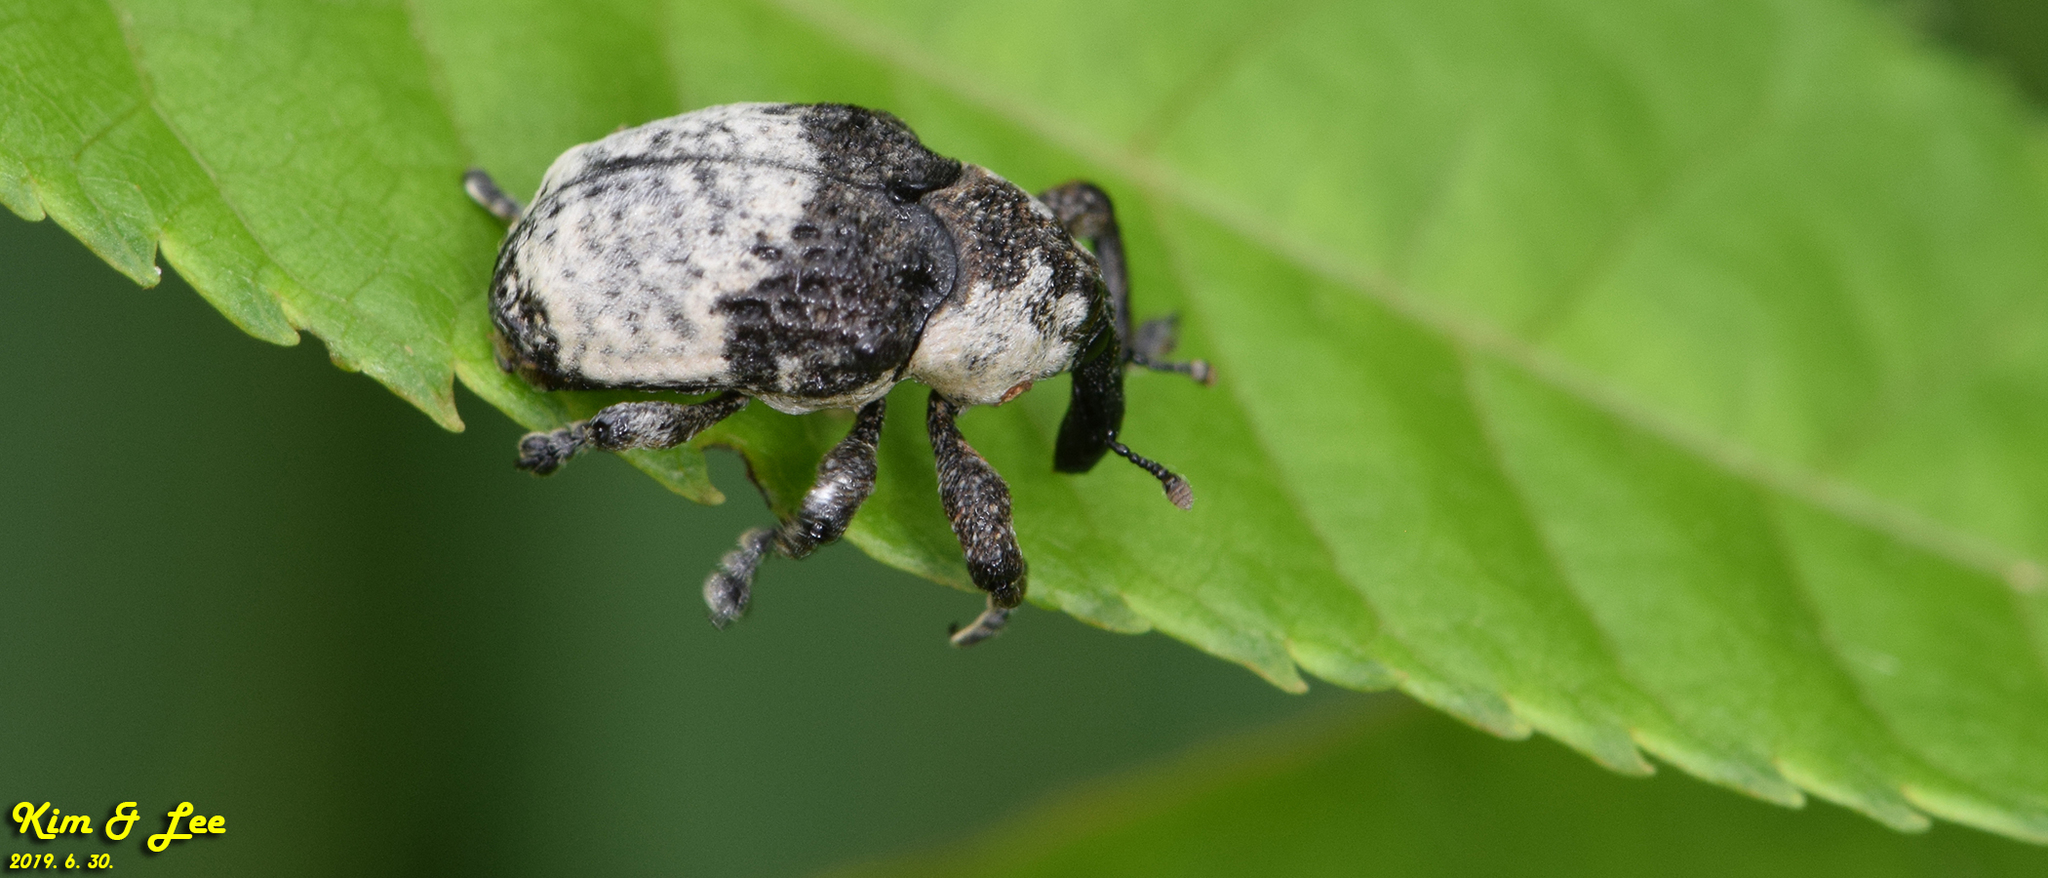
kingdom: Animalia
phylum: Arthropoda
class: Insecta
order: Coleoptera
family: Curculionidae
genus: Alcides
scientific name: Alcides trifidus
